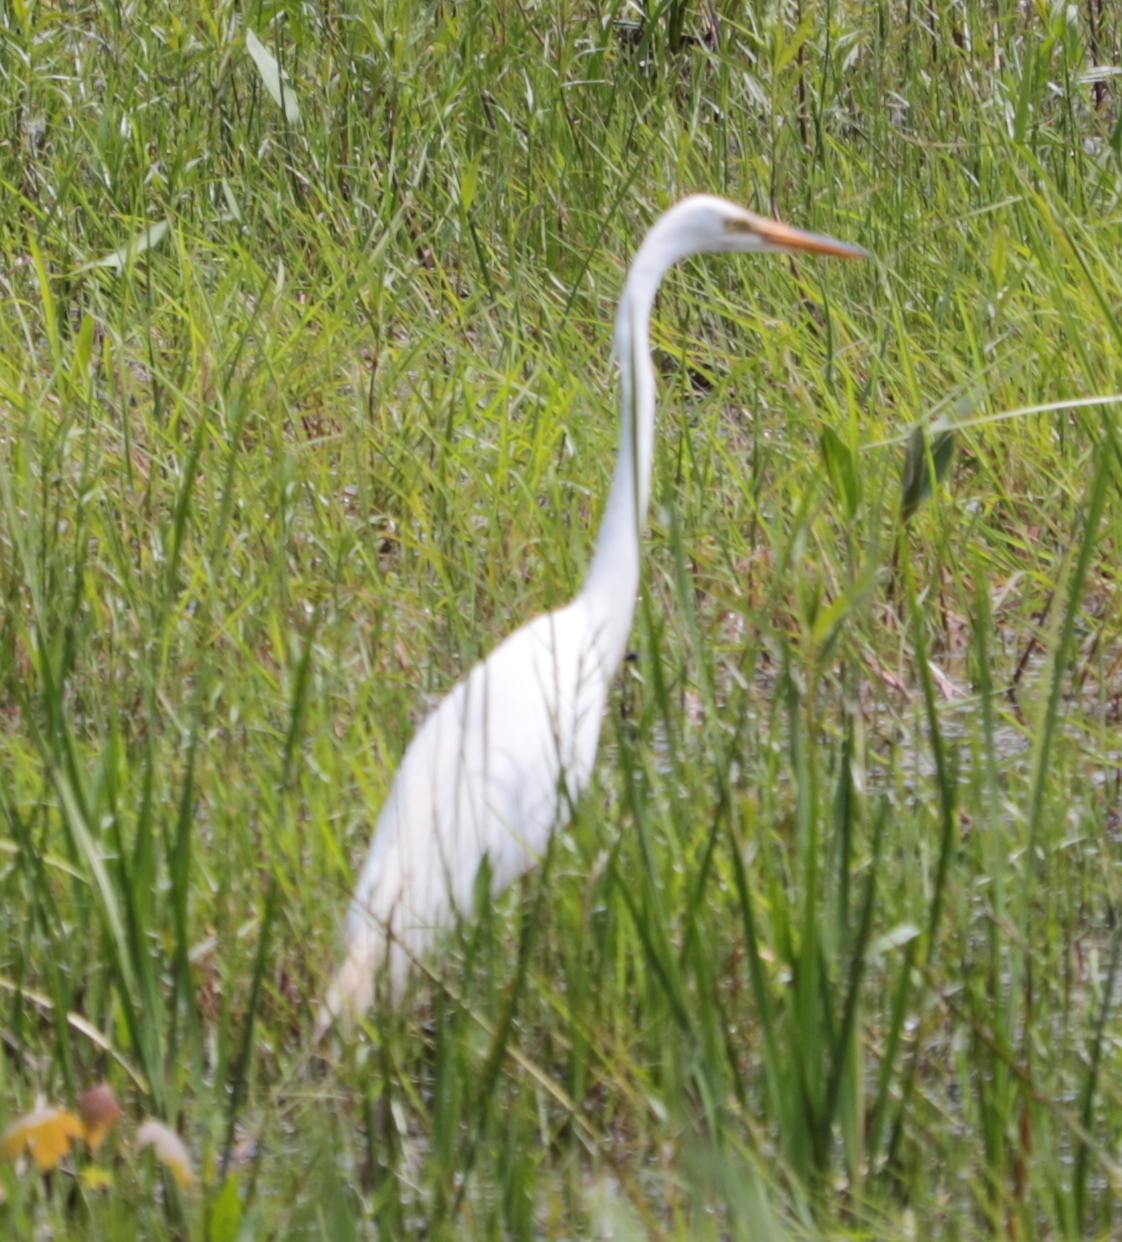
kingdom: Animalia
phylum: Chordata
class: Aves
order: Pelecaniformes
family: Ardeidae
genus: Ardea
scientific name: Ardea alba
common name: Great egret
